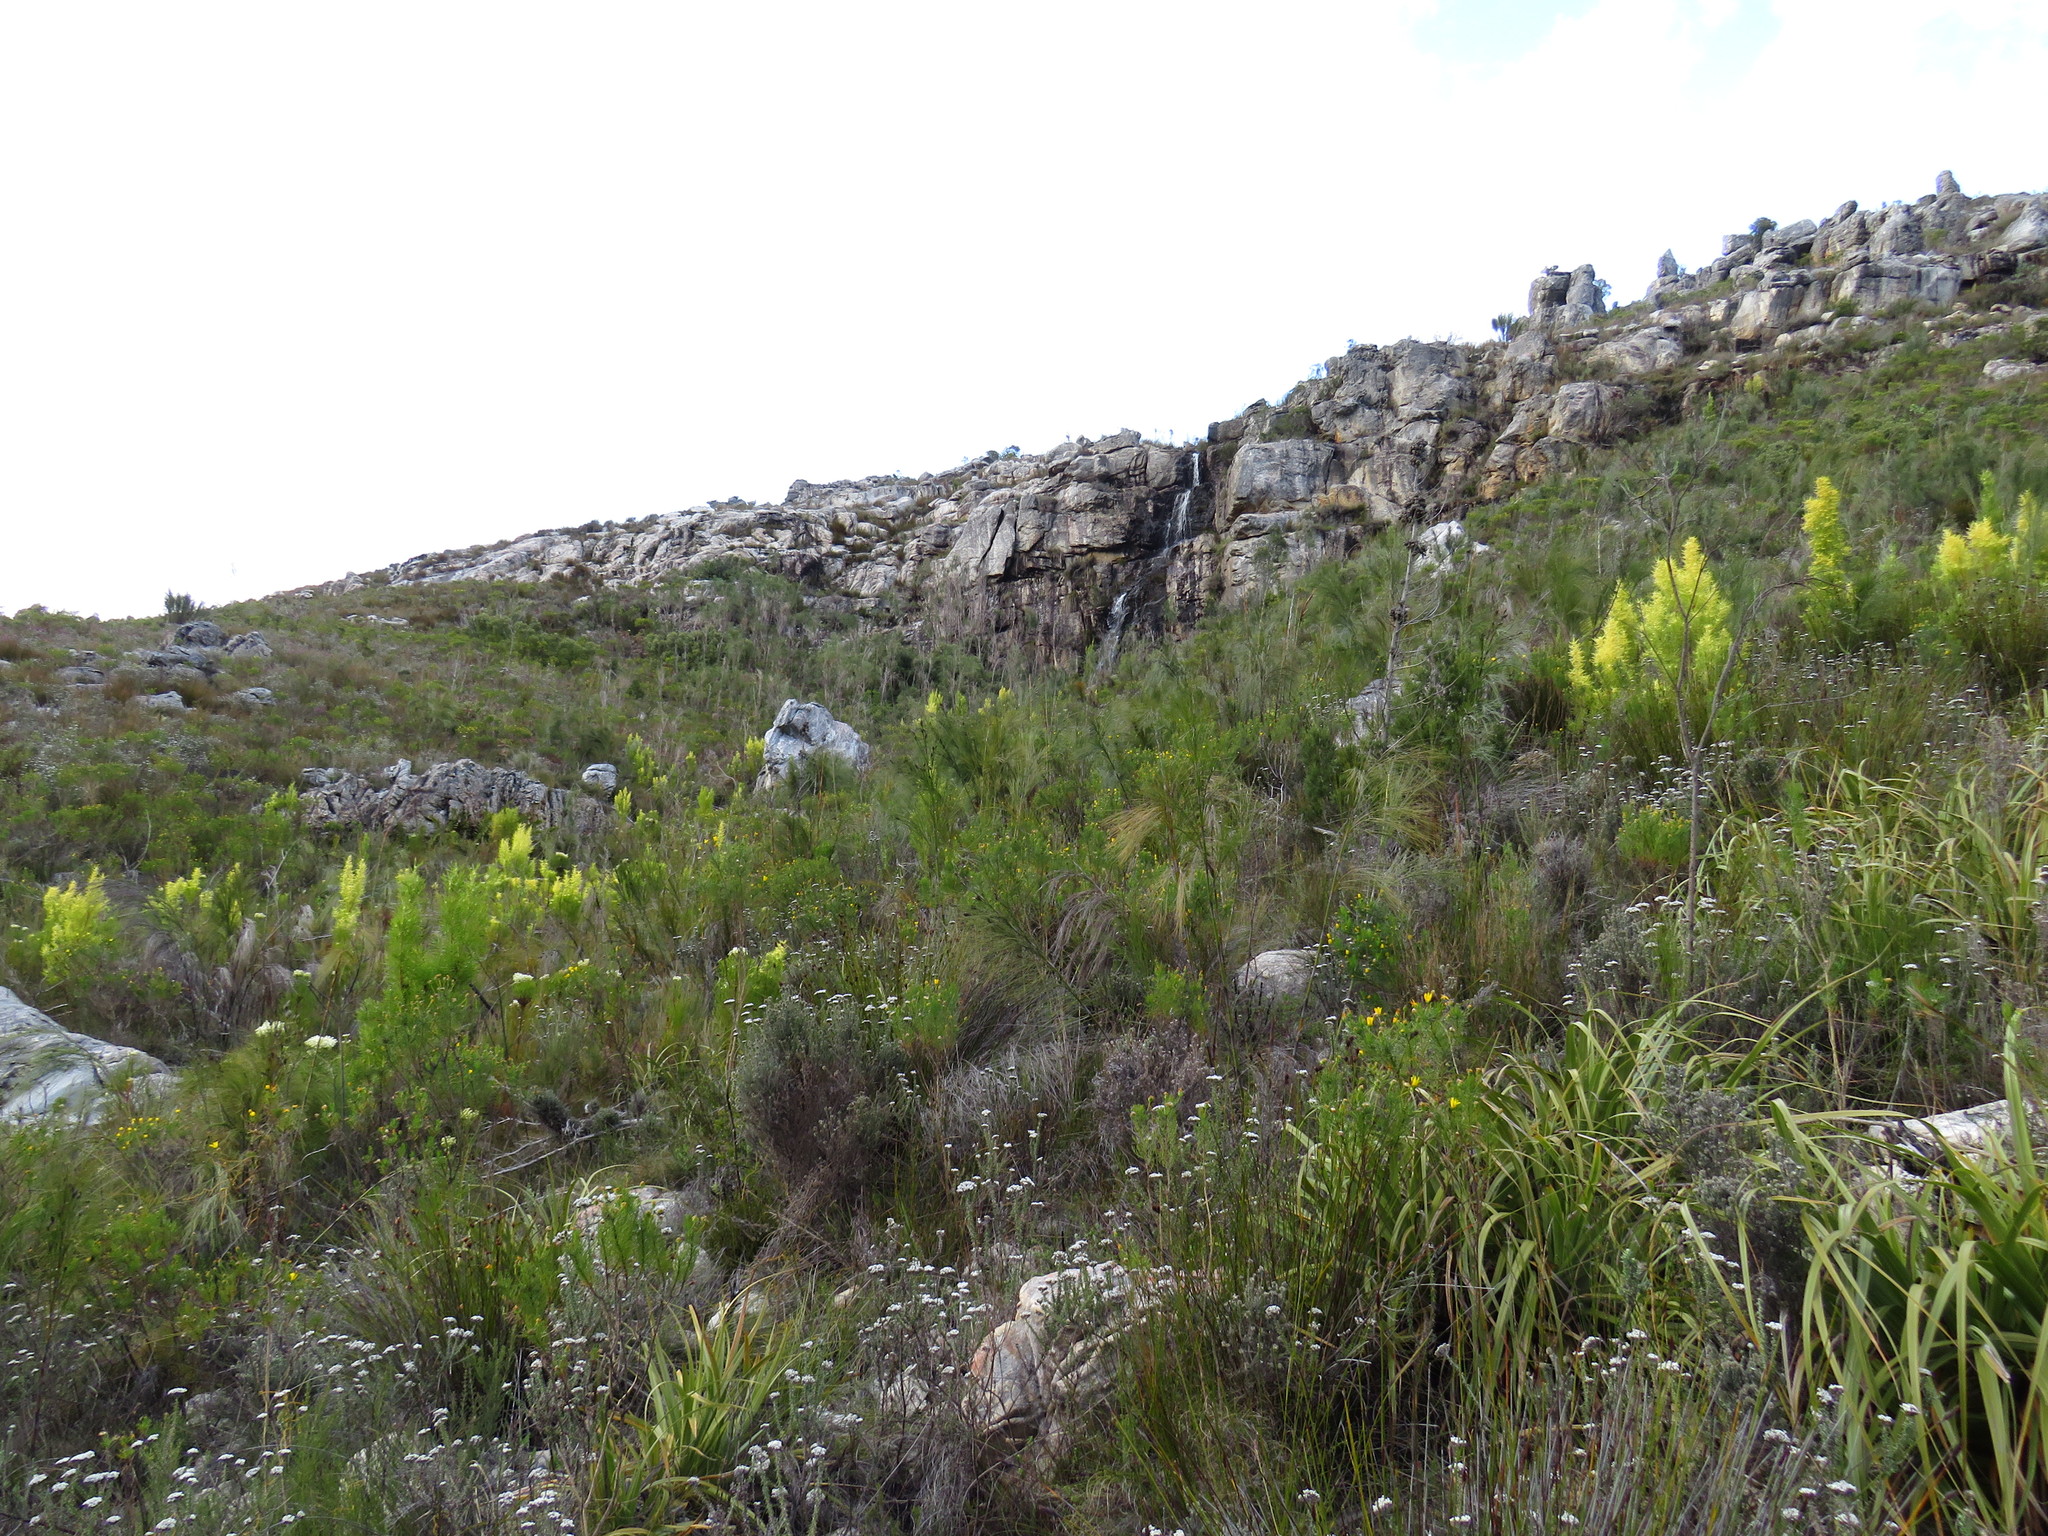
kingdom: Plantae
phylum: Tracheophyta
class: Magnoliopsida
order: Proteales
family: Proteaceae
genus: Leucadendron
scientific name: Leucadendron salicifolium
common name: Common stream conebush
